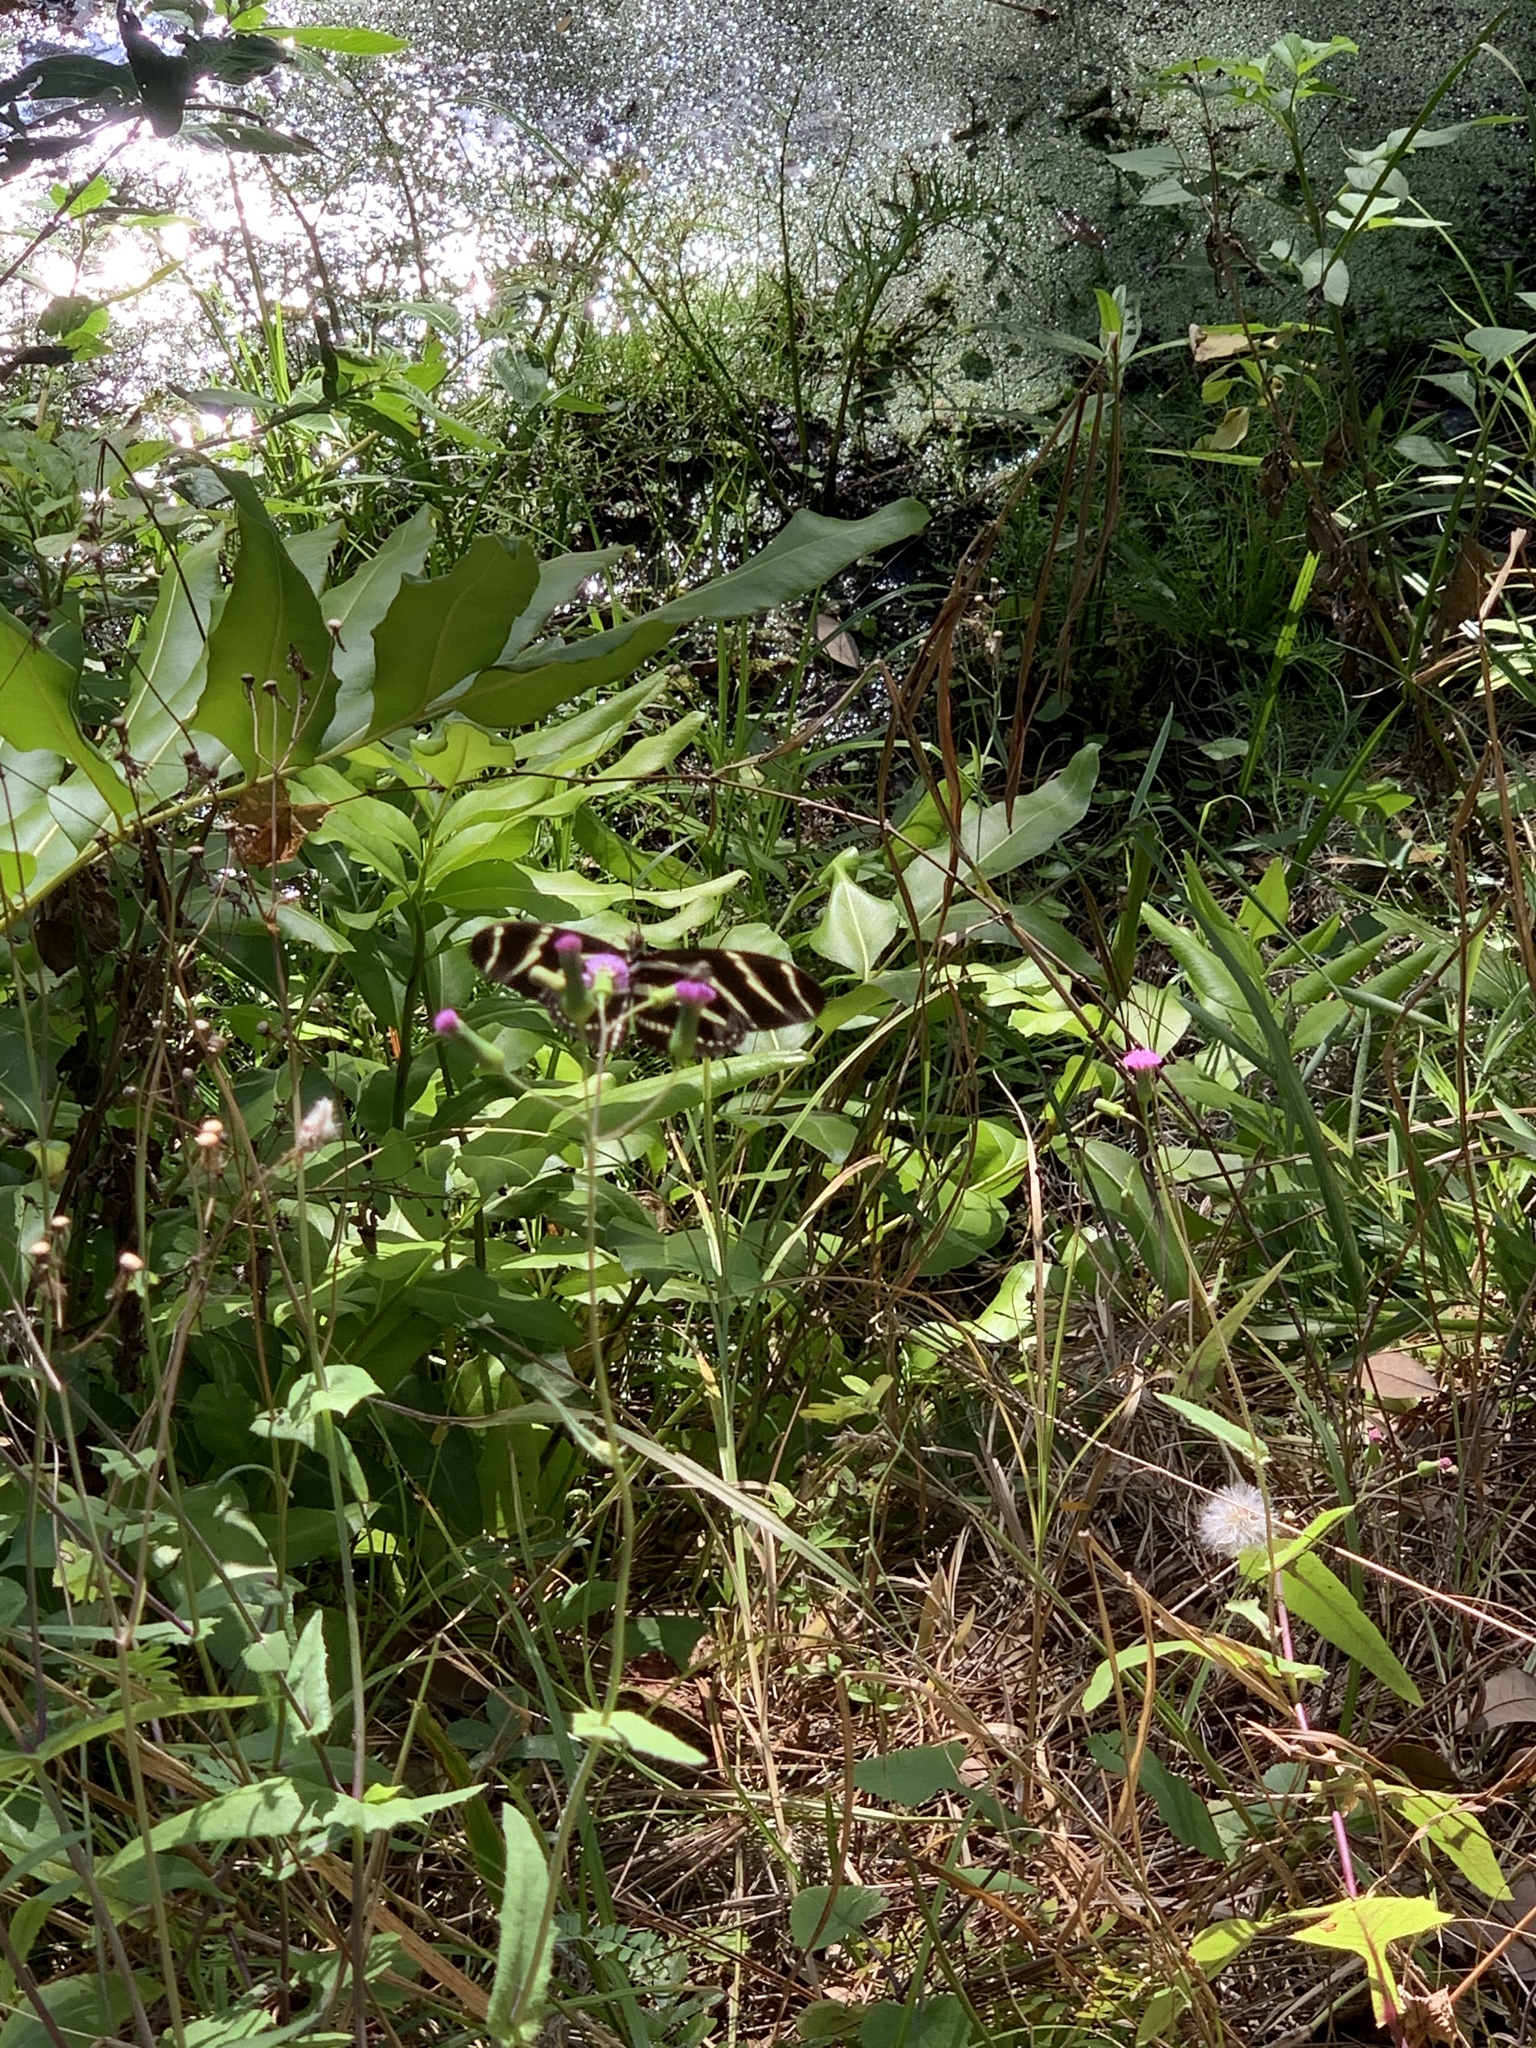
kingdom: Animalia
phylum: Arthropoda
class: Insecta
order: Lepidoptera
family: Nymphalidae
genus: Heliconius
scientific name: Heliconius charithonia
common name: Zebra long wing
